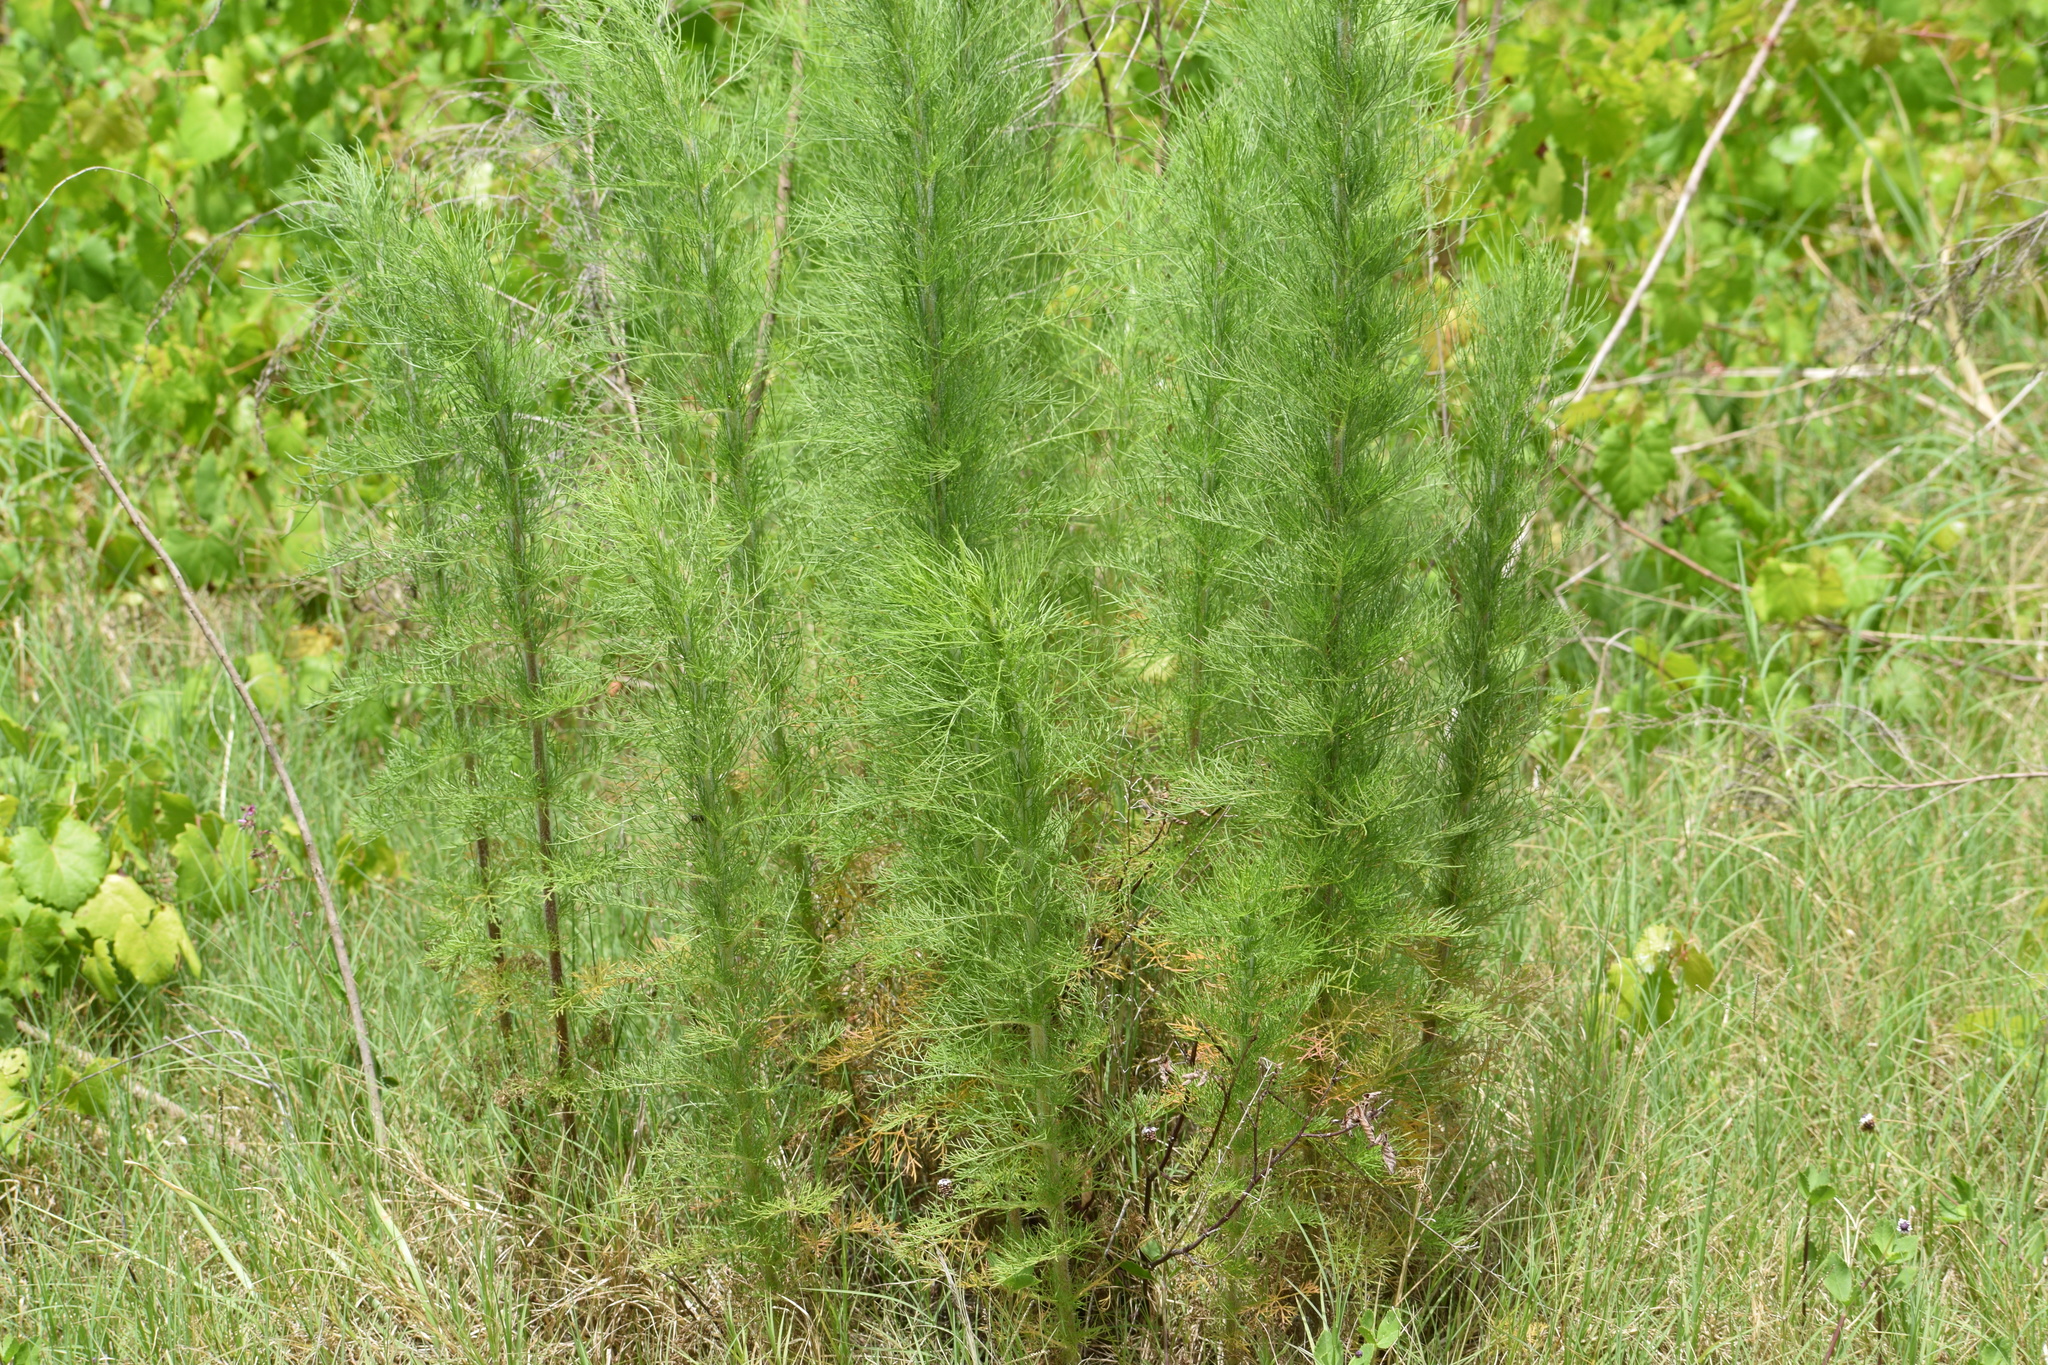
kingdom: Plantae
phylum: Tracheophyta
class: Magnoliopsida
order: Asterales
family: Asteraceae
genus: Eupatorium
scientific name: Eupatorium capillifolium
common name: Dog-fennel
